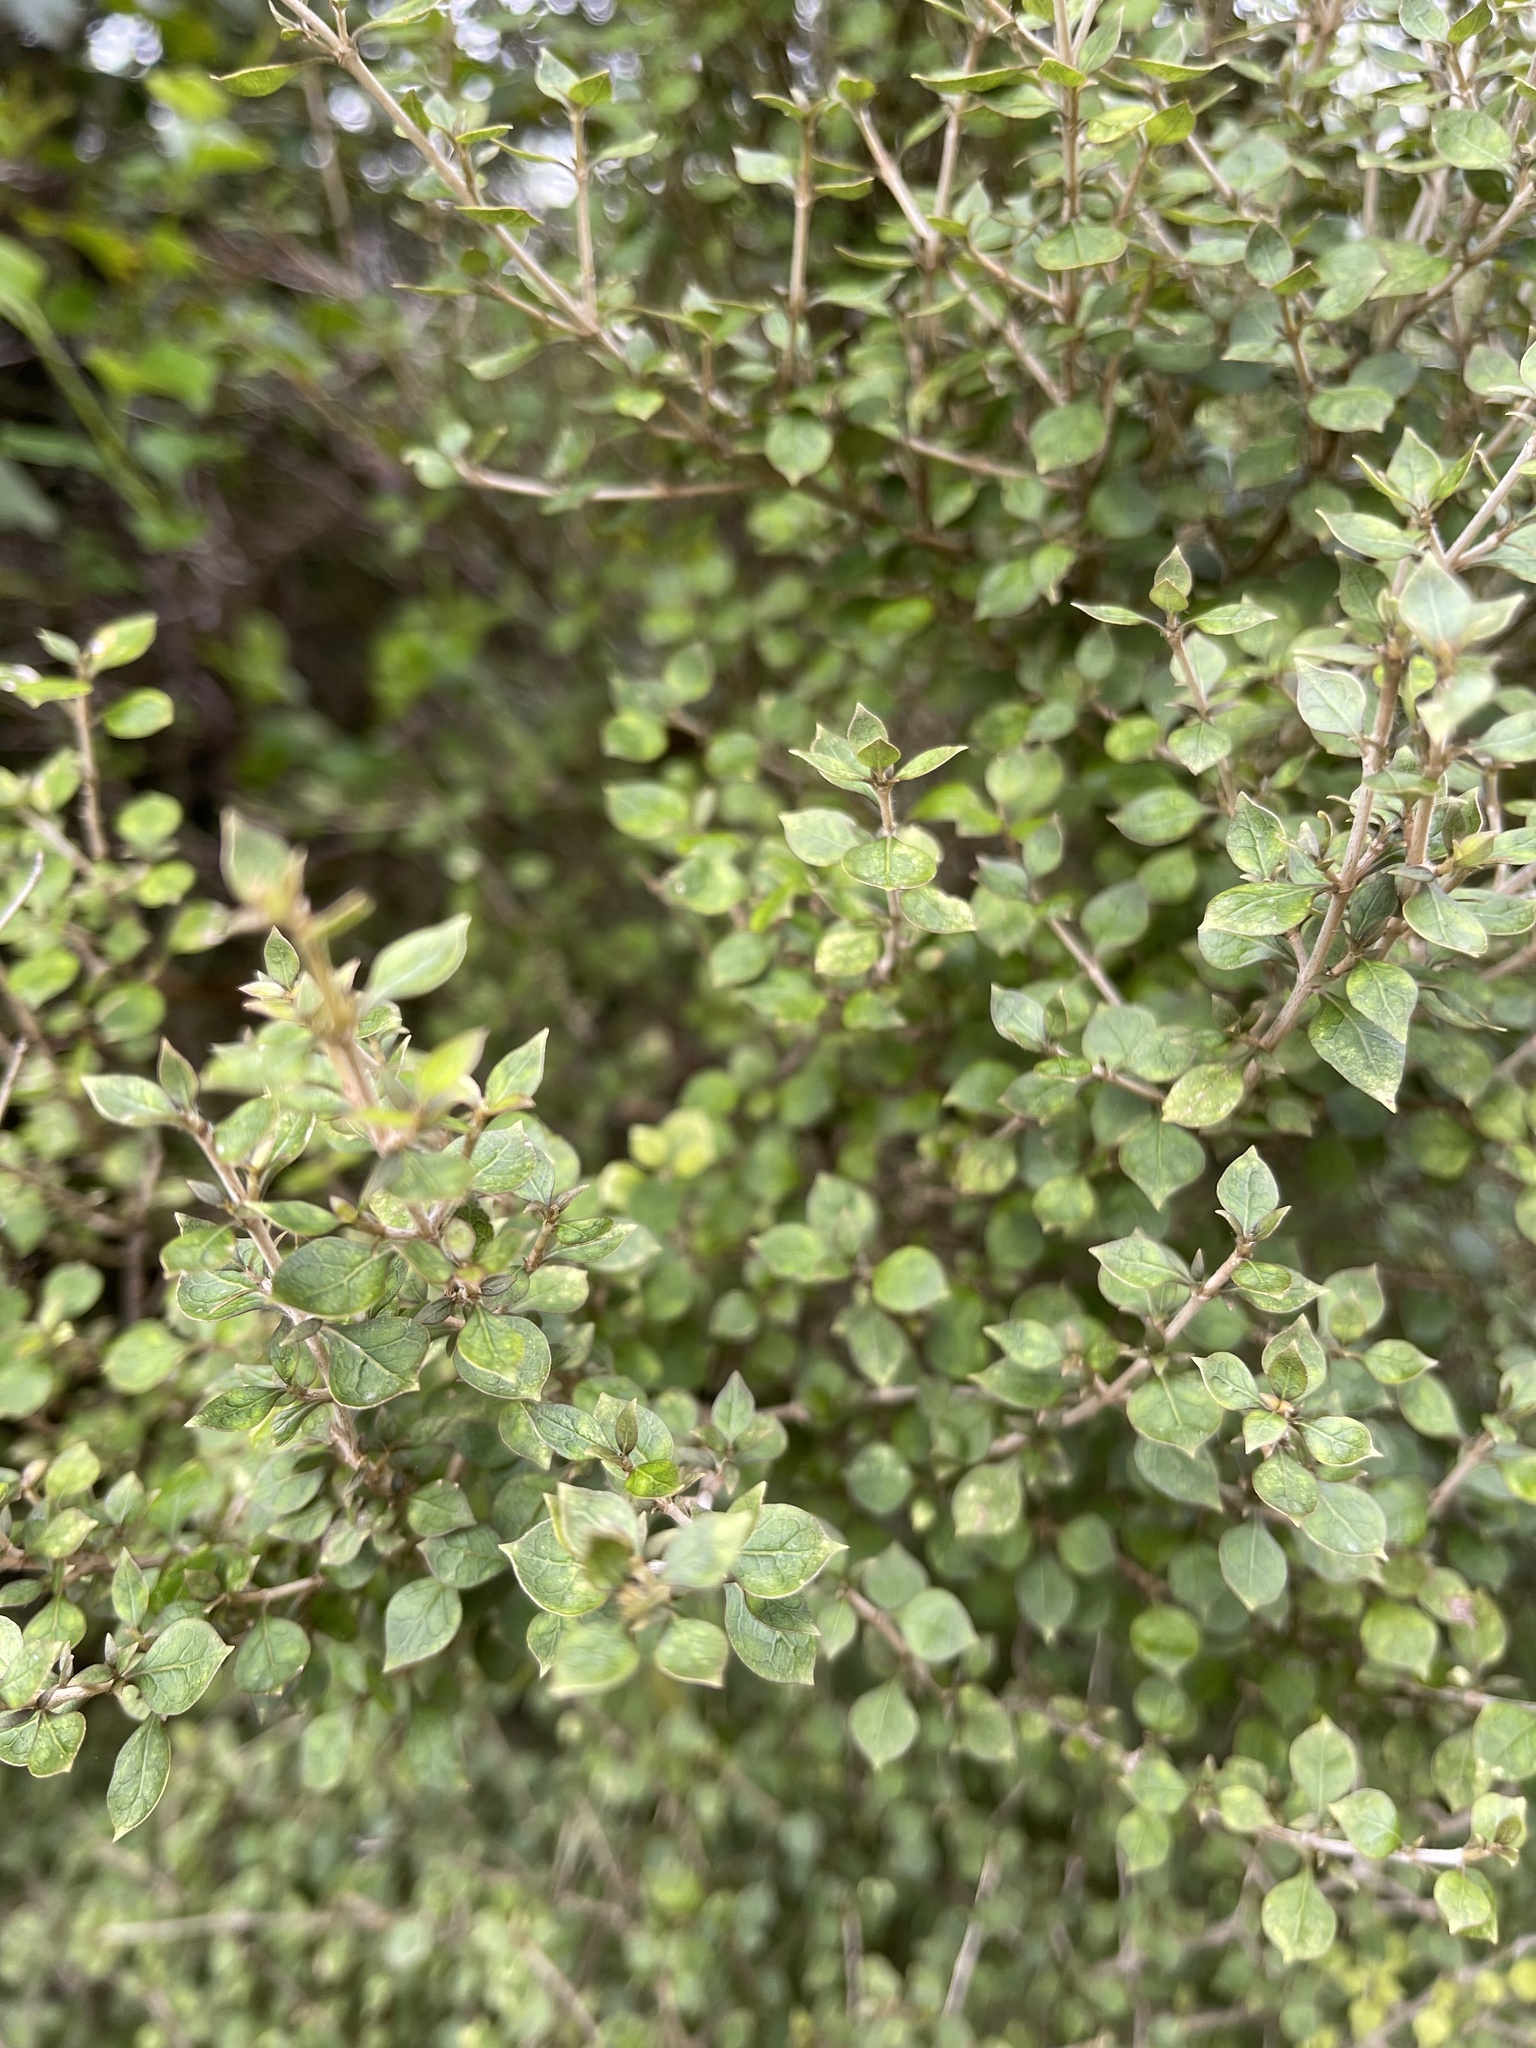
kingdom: Plantae
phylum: Tracheophyta
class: Magnoliopsida
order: Gentianales
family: Rubiaceae
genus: Coprosma
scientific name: Coprosma areolata
